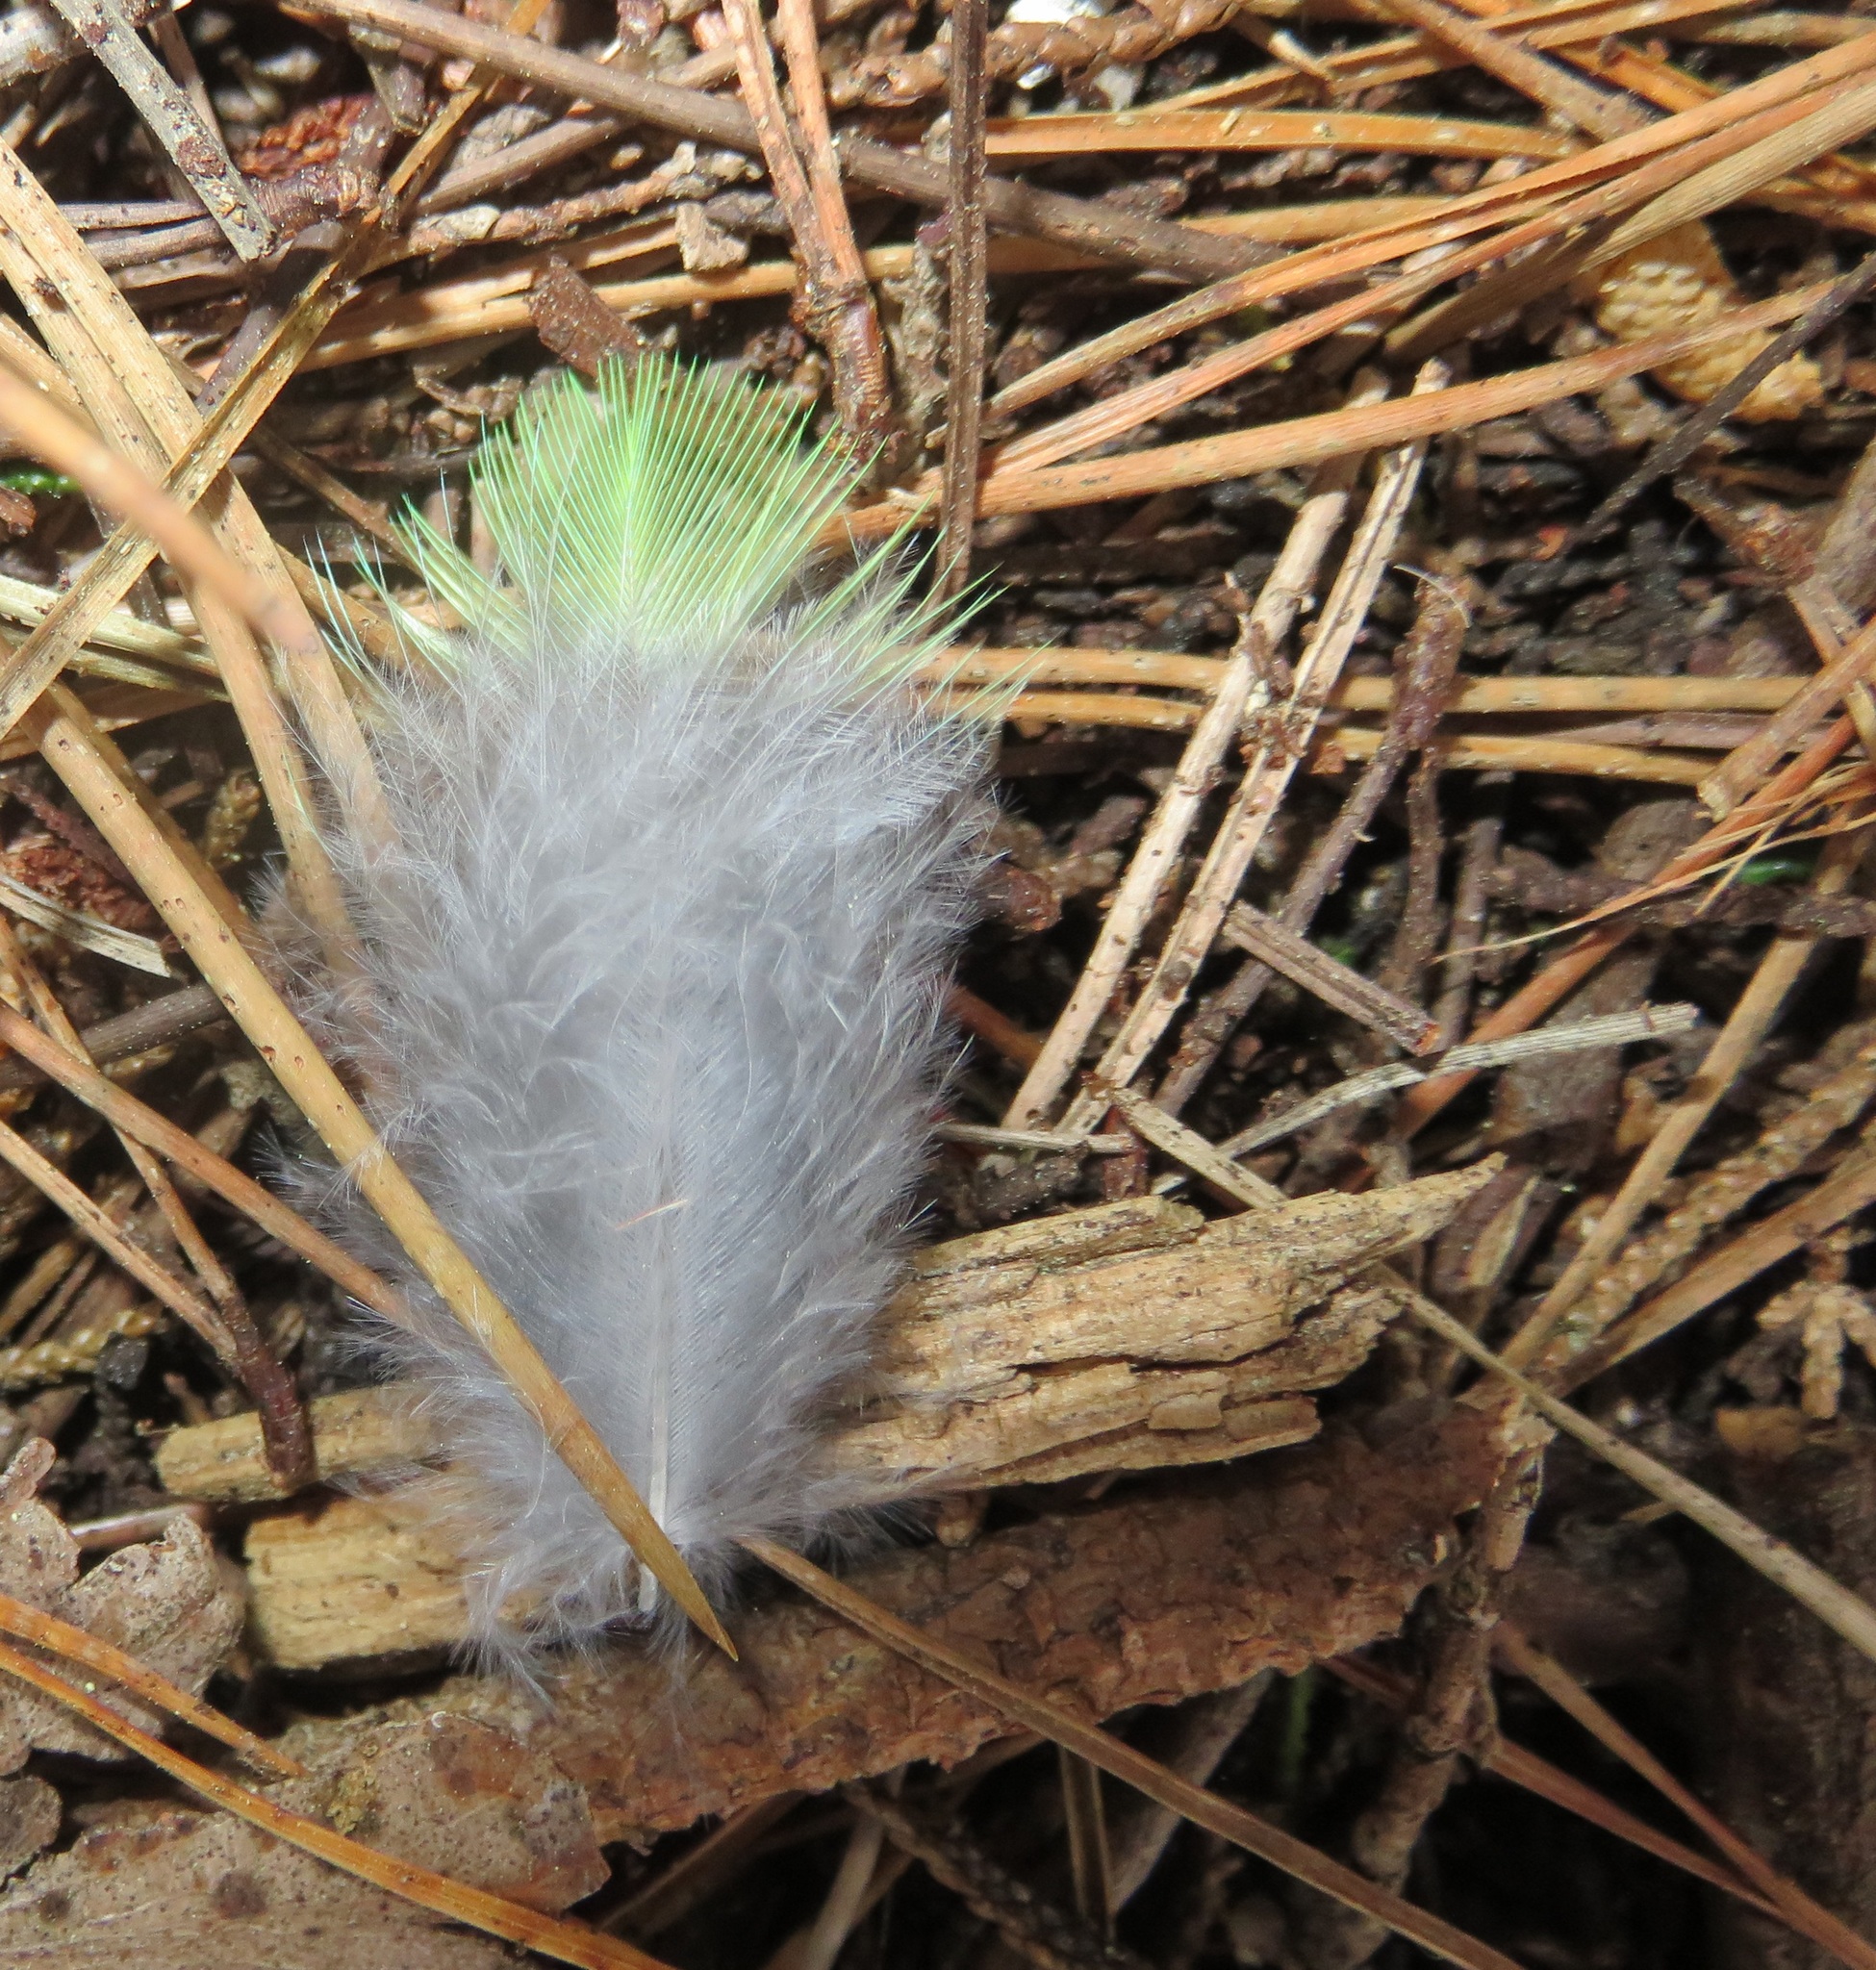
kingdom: Animalia
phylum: Chordata
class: Aves
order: Psittaciformes
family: Psittacidae
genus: Platycercus
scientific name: Platycercus eximius
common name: Eastern rosella
